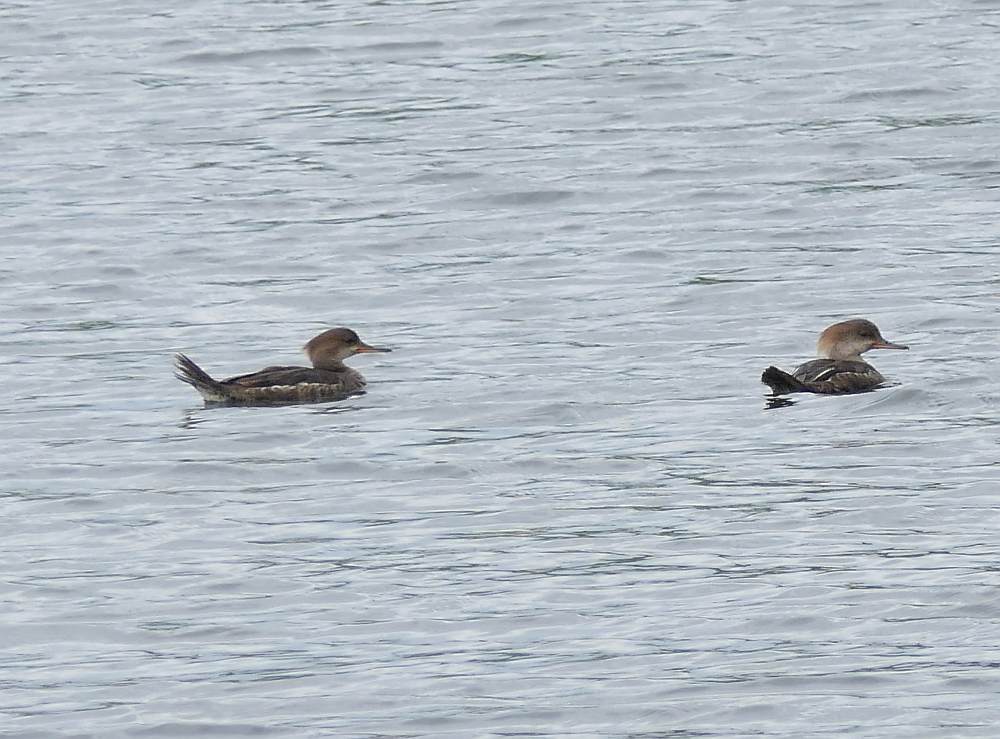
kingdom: Animalia
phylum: Chordata
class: Aves
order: Anseriformes
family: Anatidae
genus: Lophodytes
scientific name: Lophodytes cucullatus
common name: Hooded merganser
